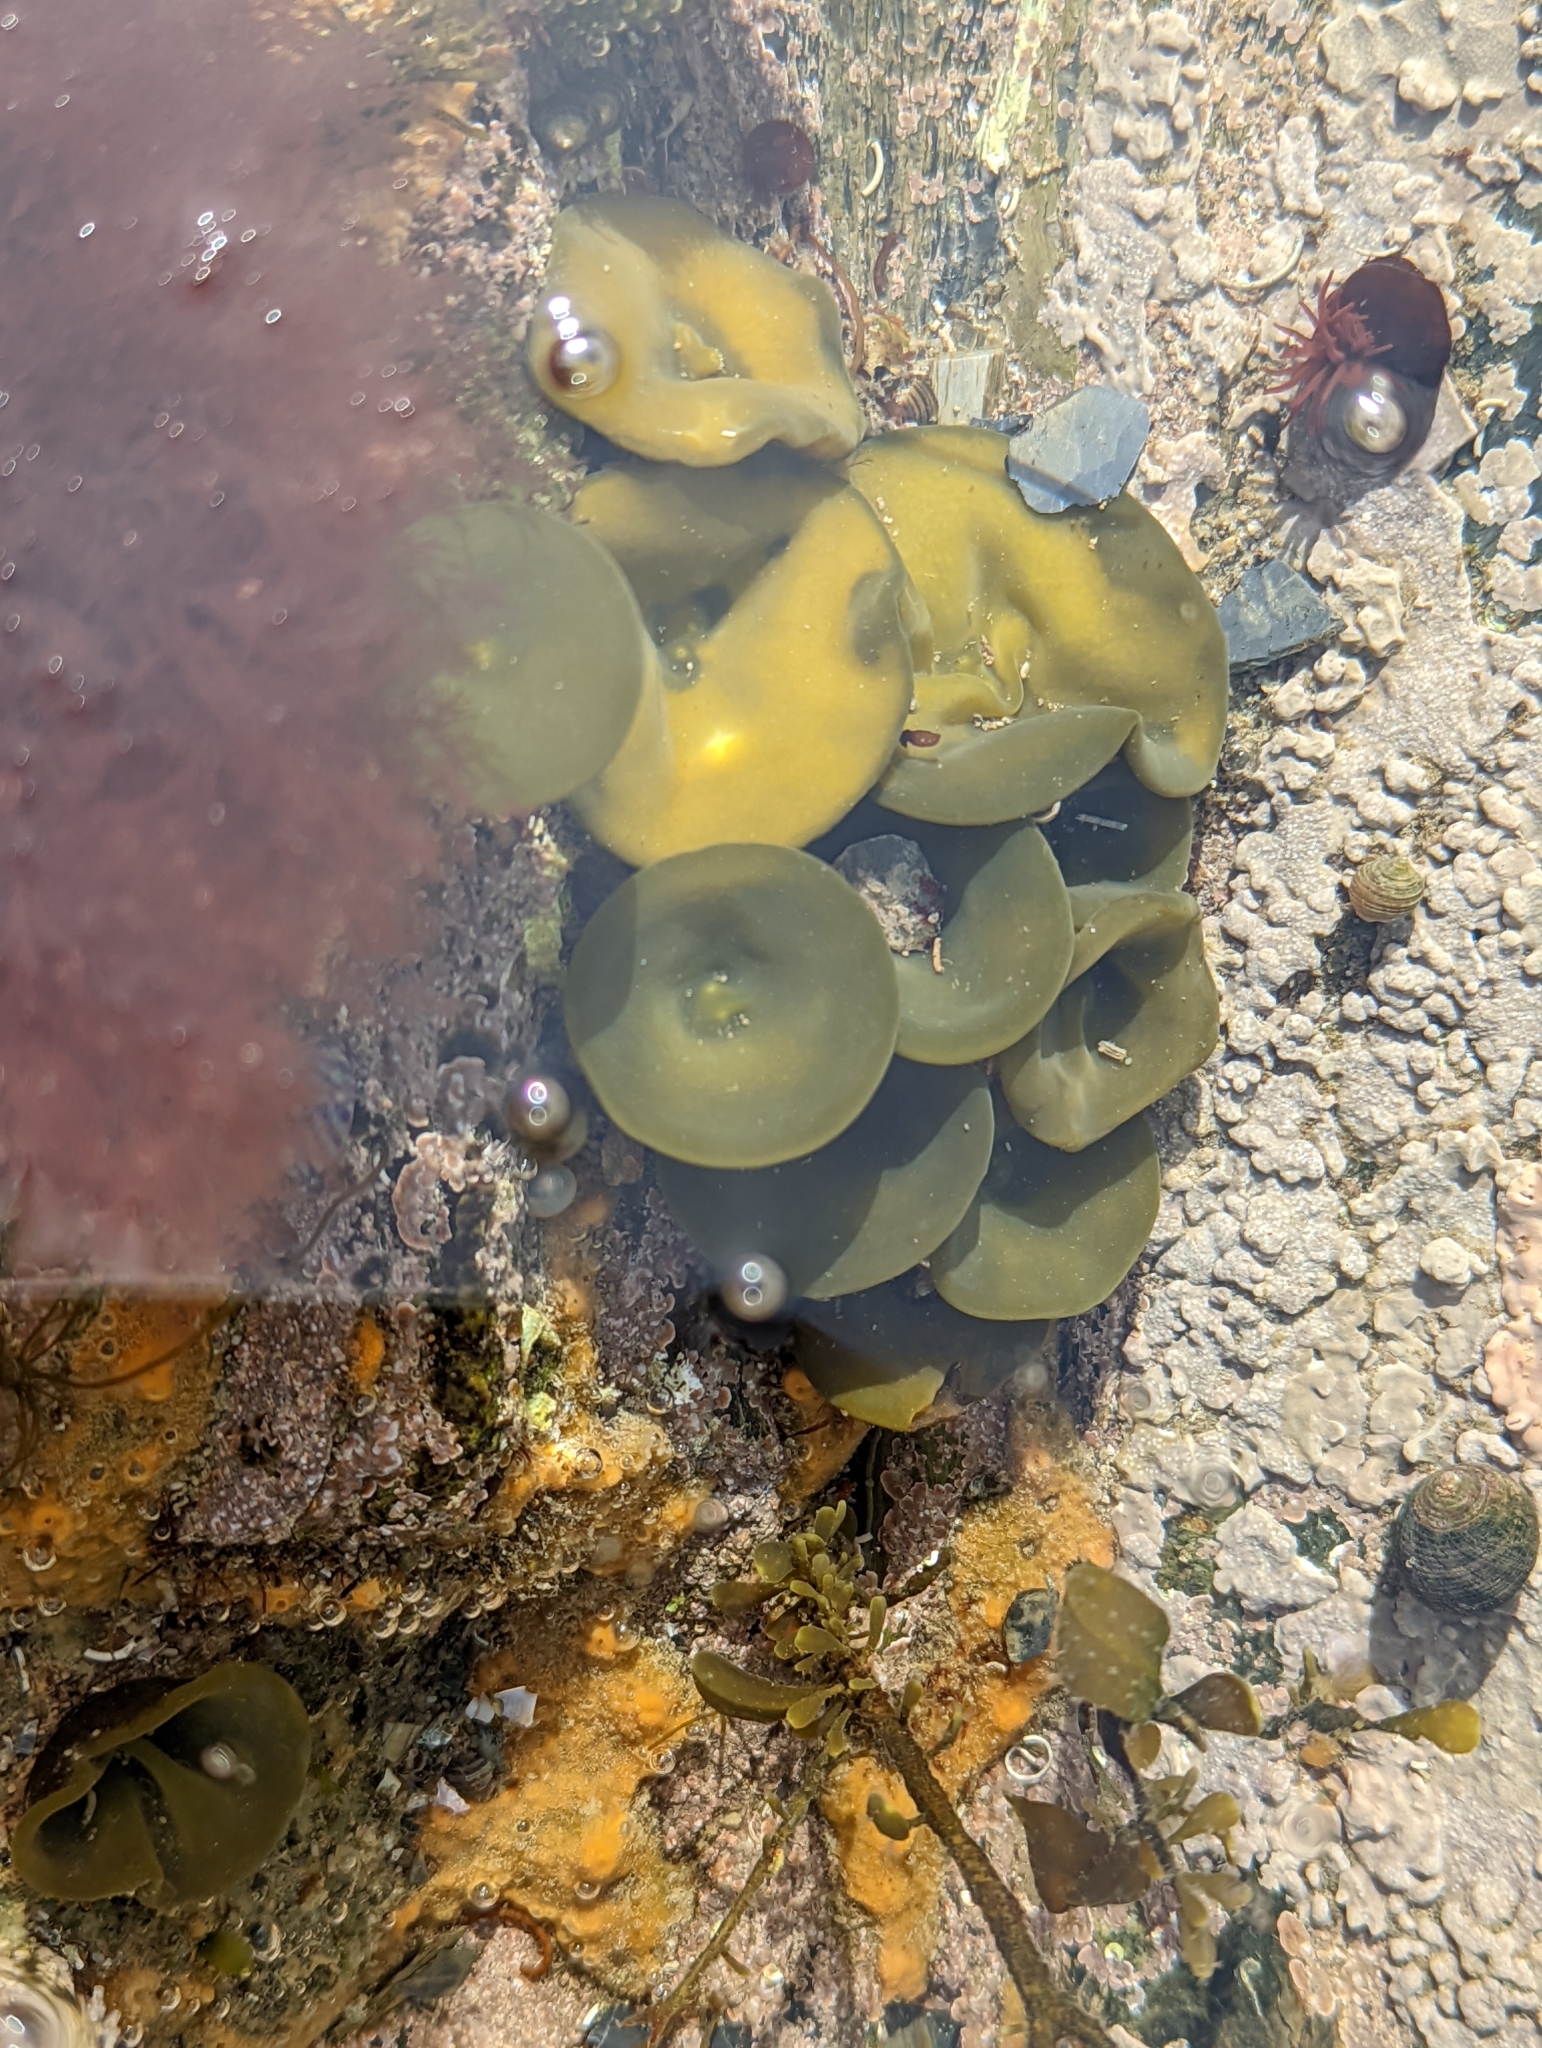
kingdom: Chromista
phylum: Ochrophyta
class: Phaeophyceae
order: Fucales
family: Himanthaliaceae
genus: Himanthalia
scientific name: Himanthalia elongata
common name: Sea-thong
